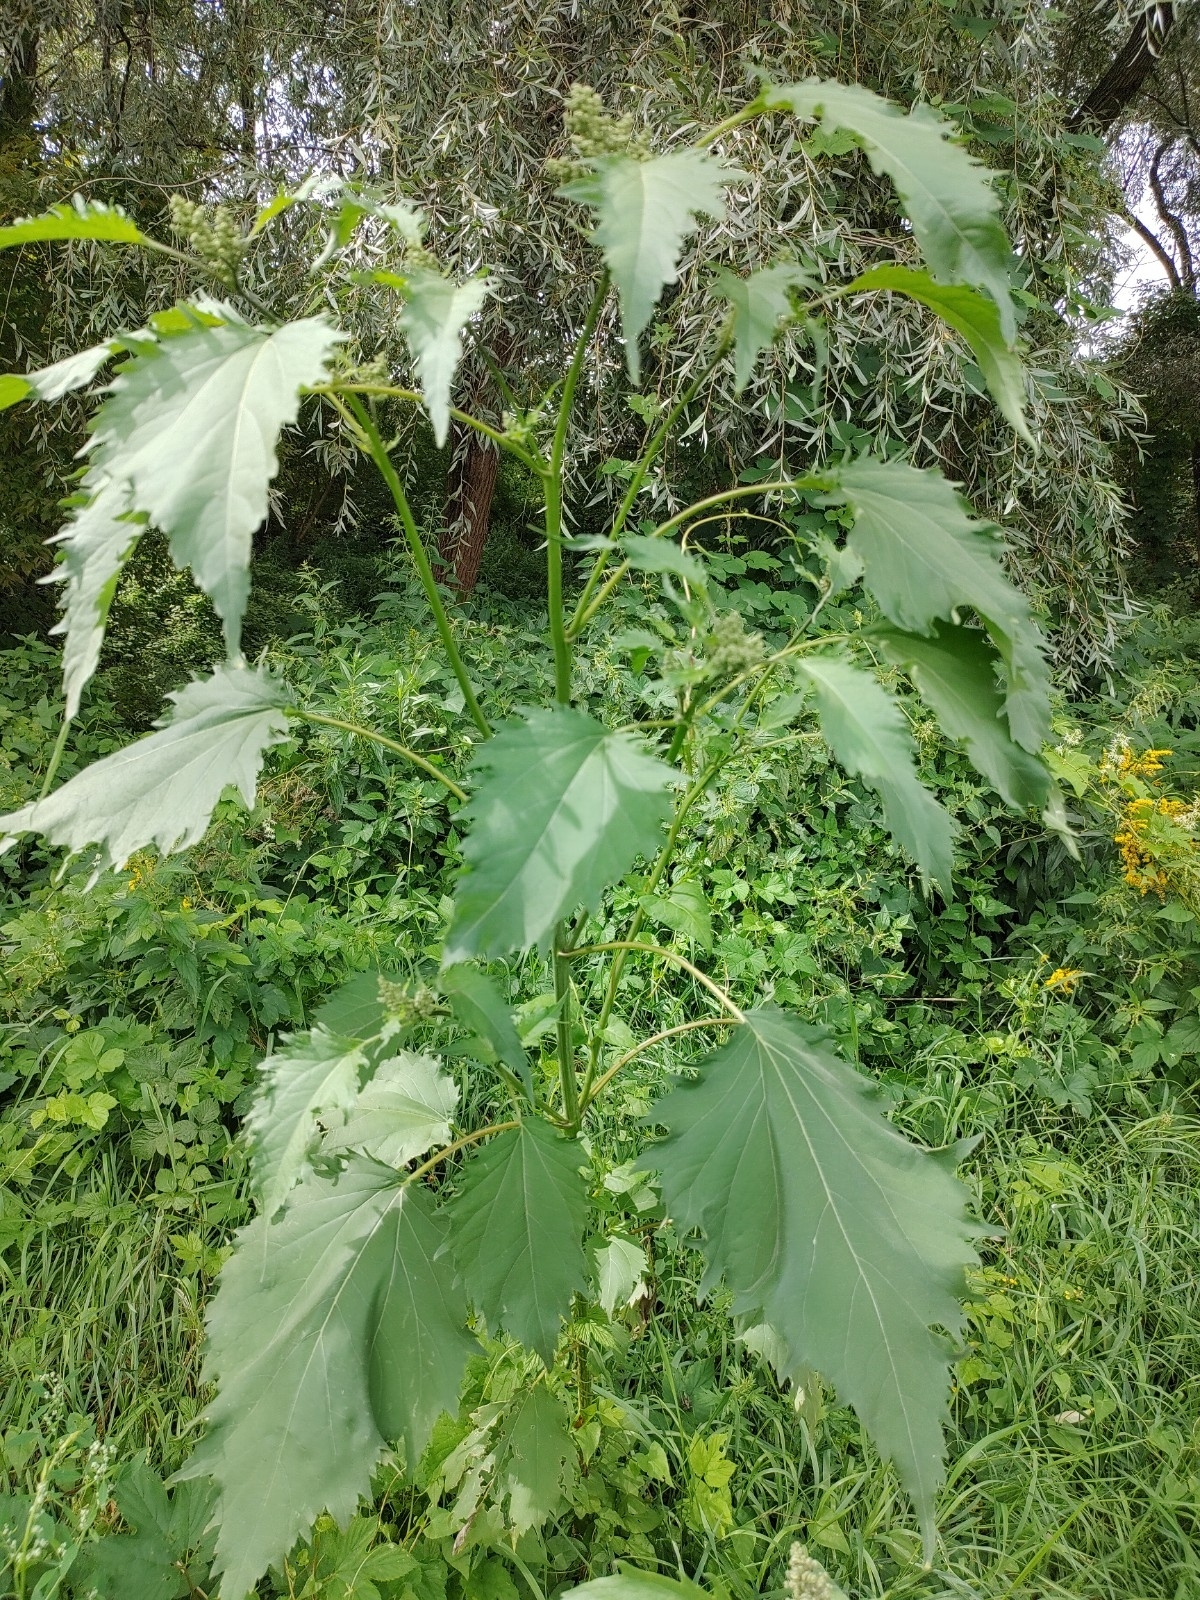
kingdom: Plantae
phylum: Tracheophyta
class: Magnoliopsida
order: Asterales
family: Asteraceae
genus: Cyclachaena
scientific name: Cyclachaena xanthiifolia
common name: Giant sumpweed
